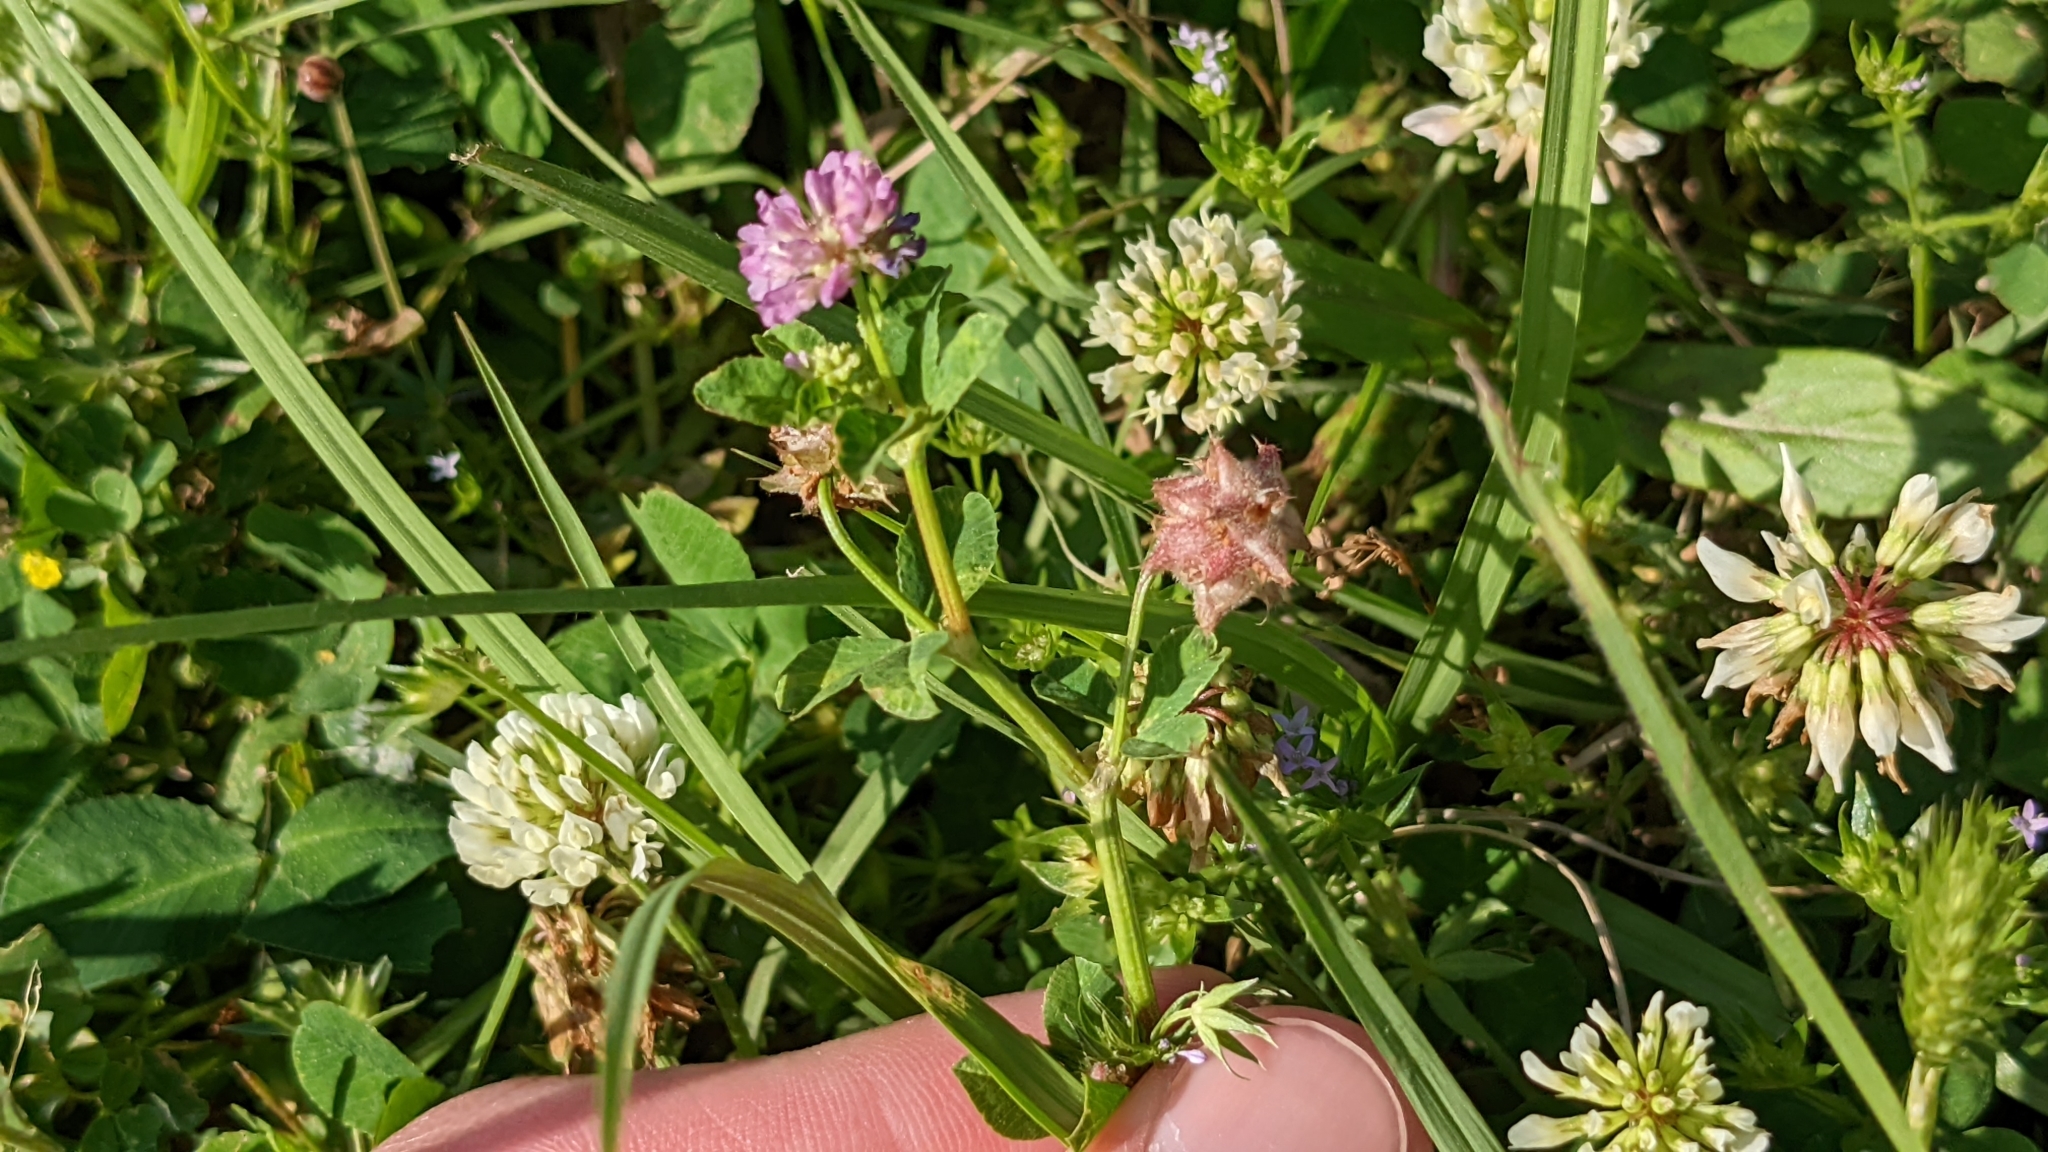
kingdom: Plantae
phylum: Tracheophyta
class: Magnoliopsida
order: Fabales
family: Fabaceae
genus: Trifolium
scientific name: Trifolium resupinatum
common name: Reversed clover
